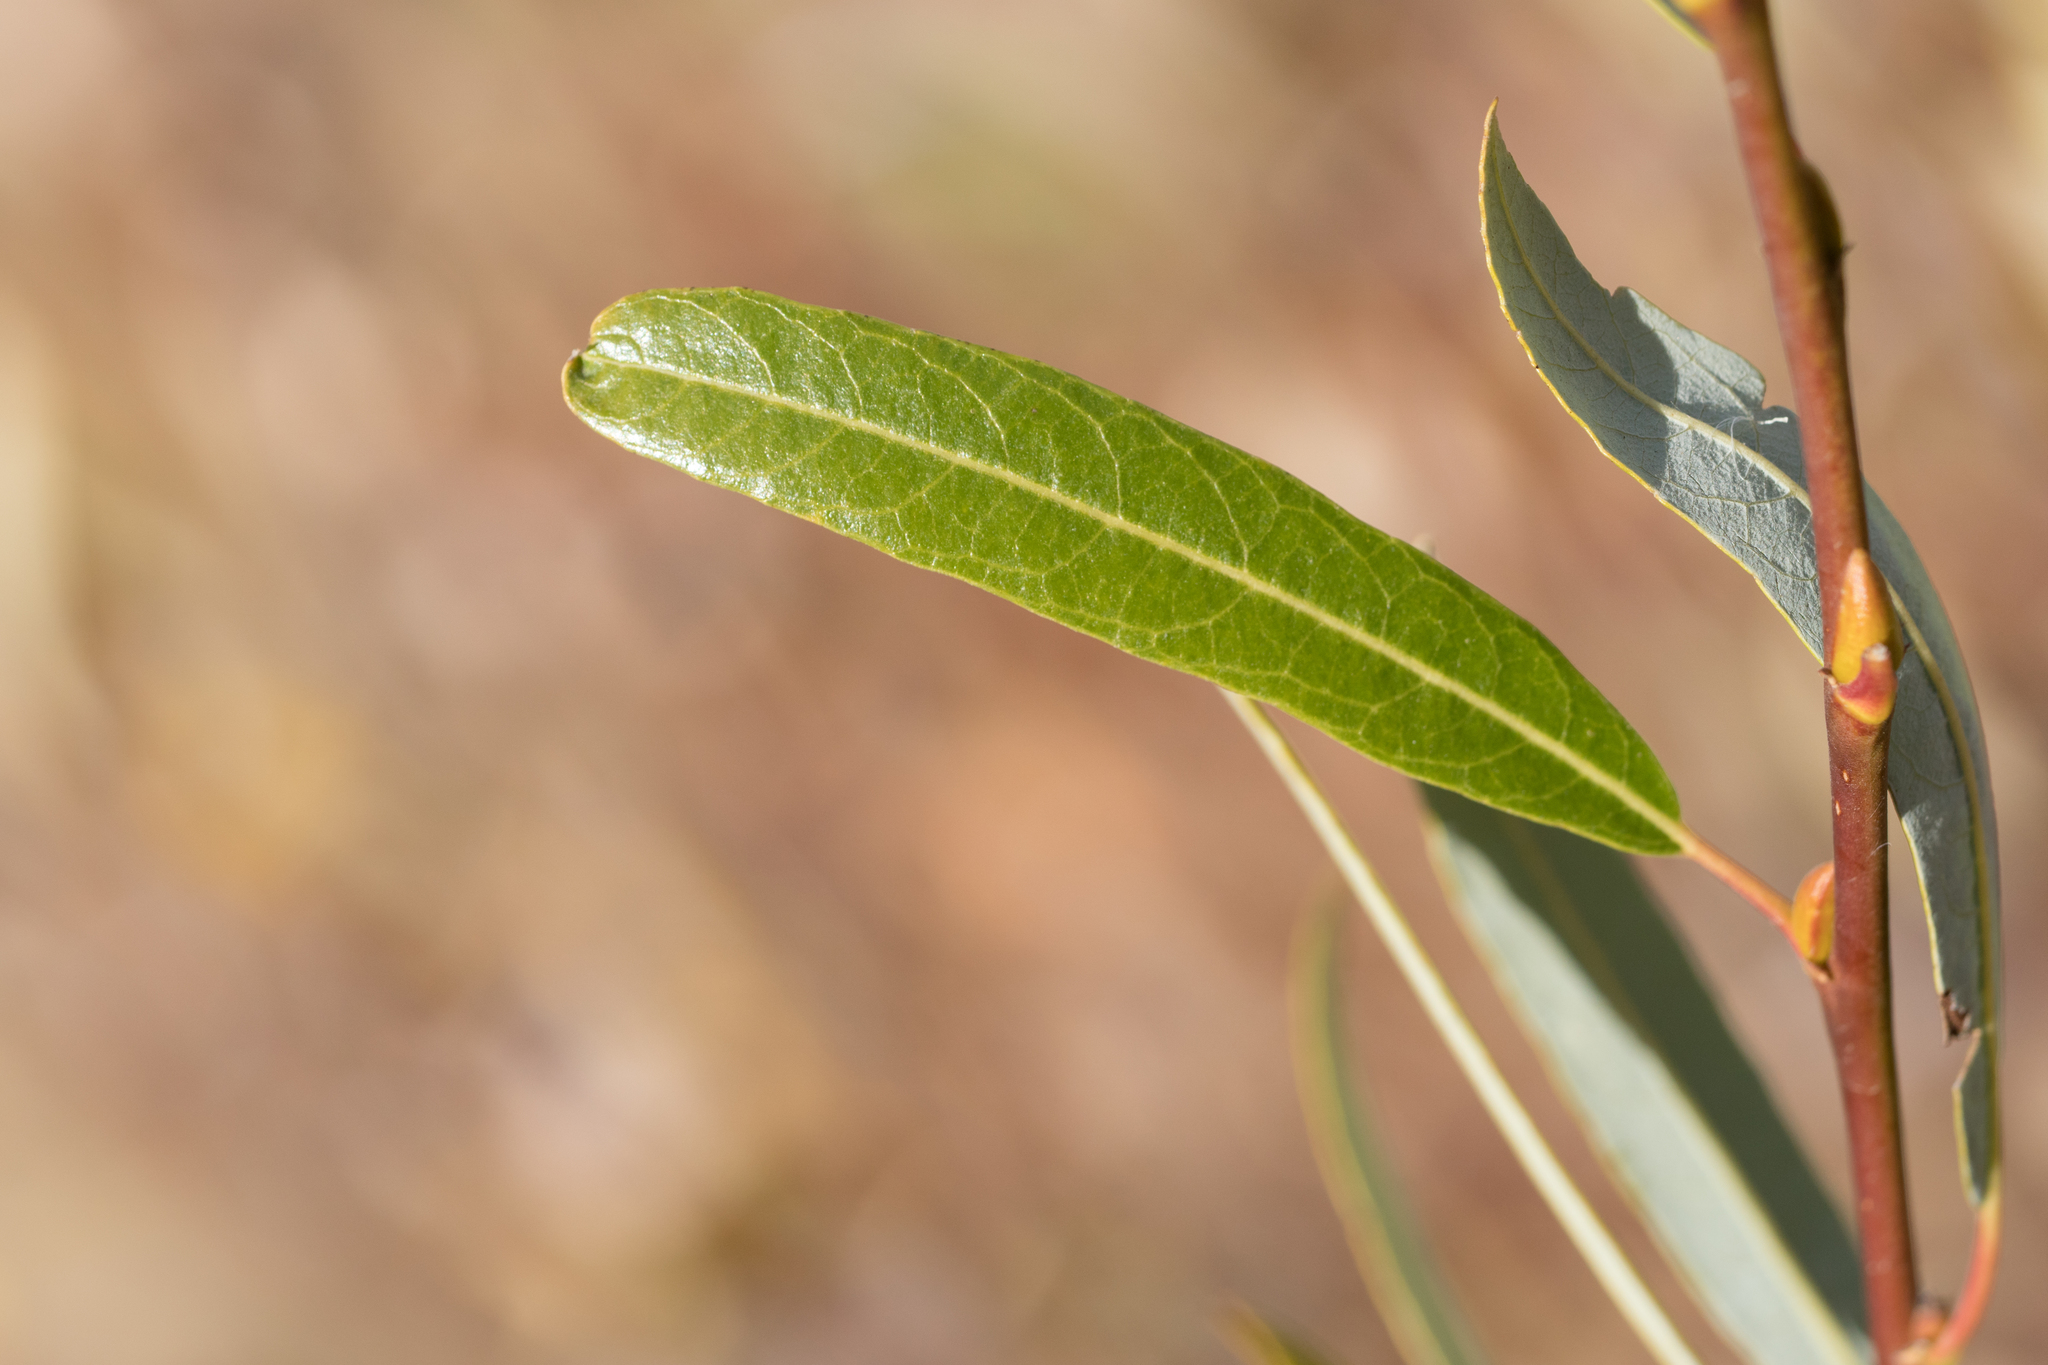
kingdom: Plantae
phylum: Tracheophyta
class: Magnoliopsida
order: Malpighiales
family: Salicaceae
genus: Salix
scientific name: Salix lasiolepis
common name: Arroyo willow
